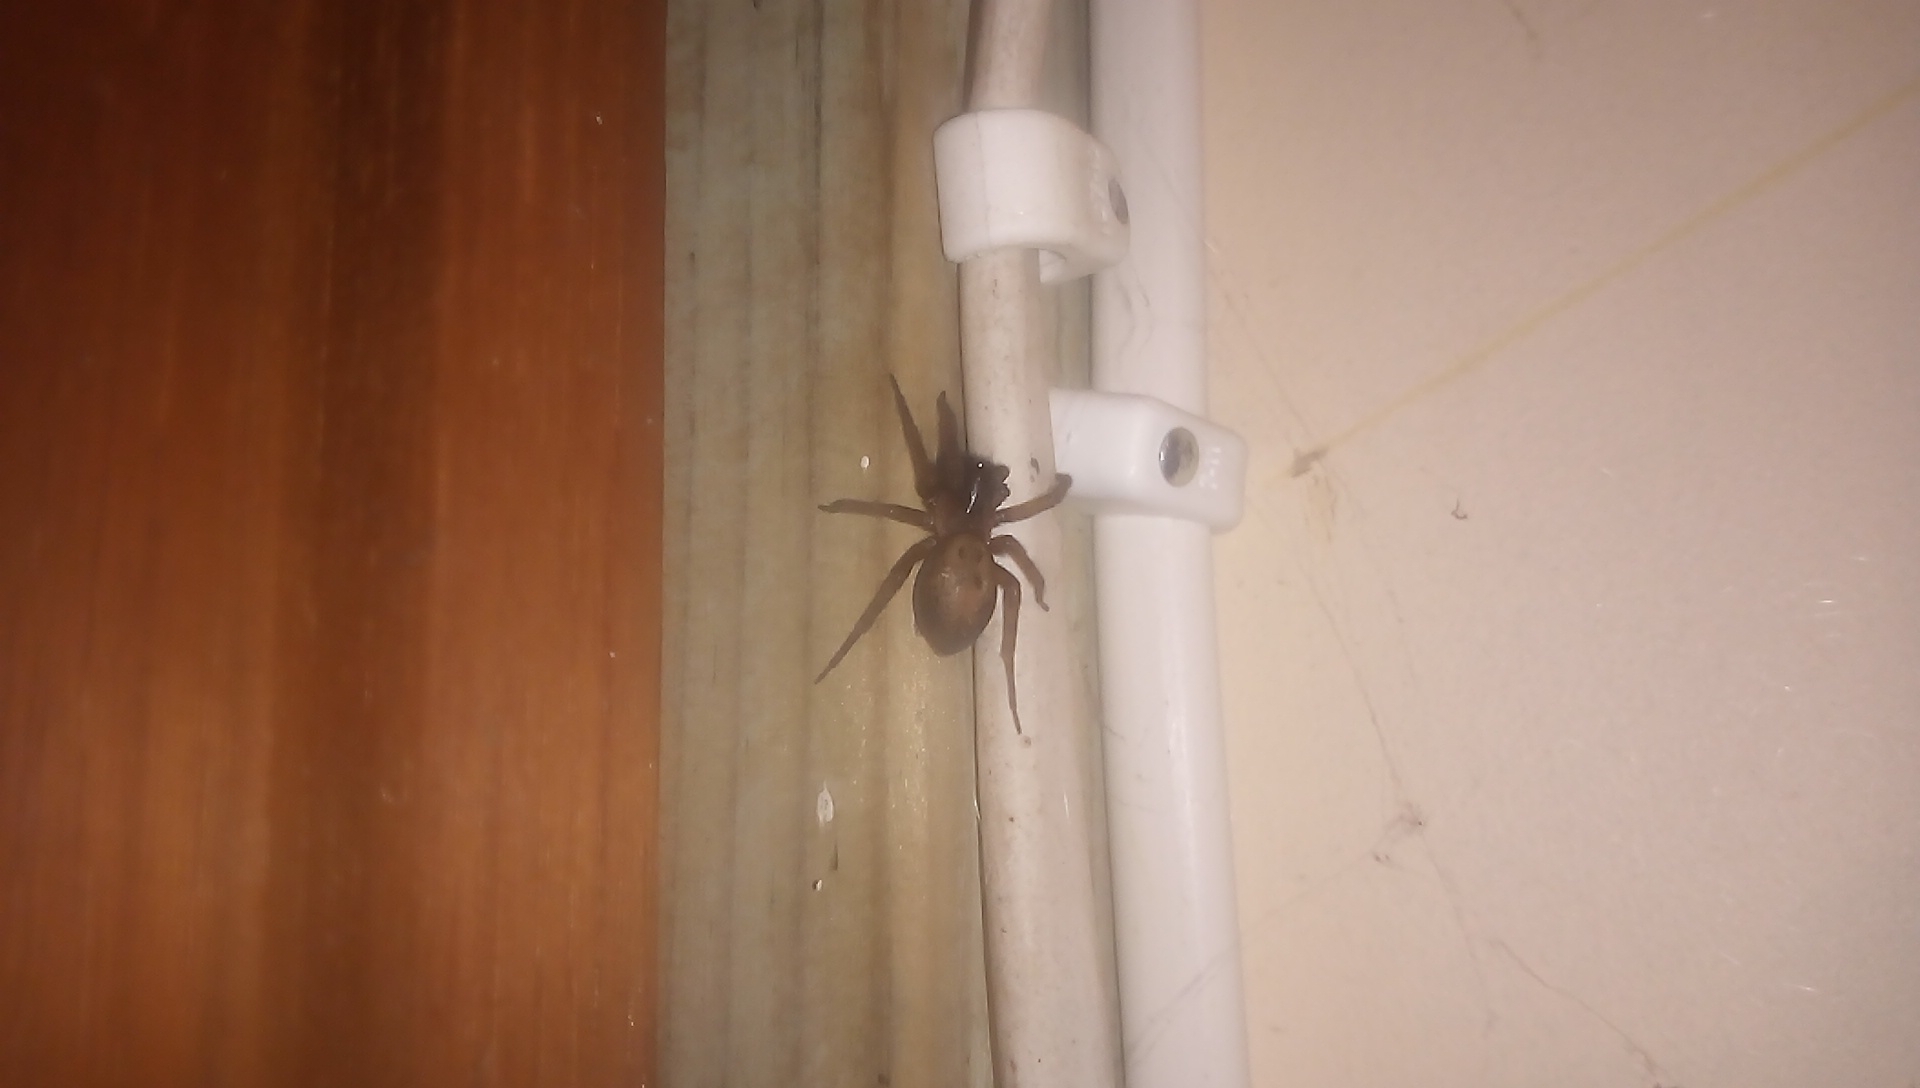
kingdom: Animalia
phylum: Arthropoda
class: Arachnida
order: Araneae
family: Amaurobiidae
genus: Amaurobius
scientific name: Amaurobius similis
